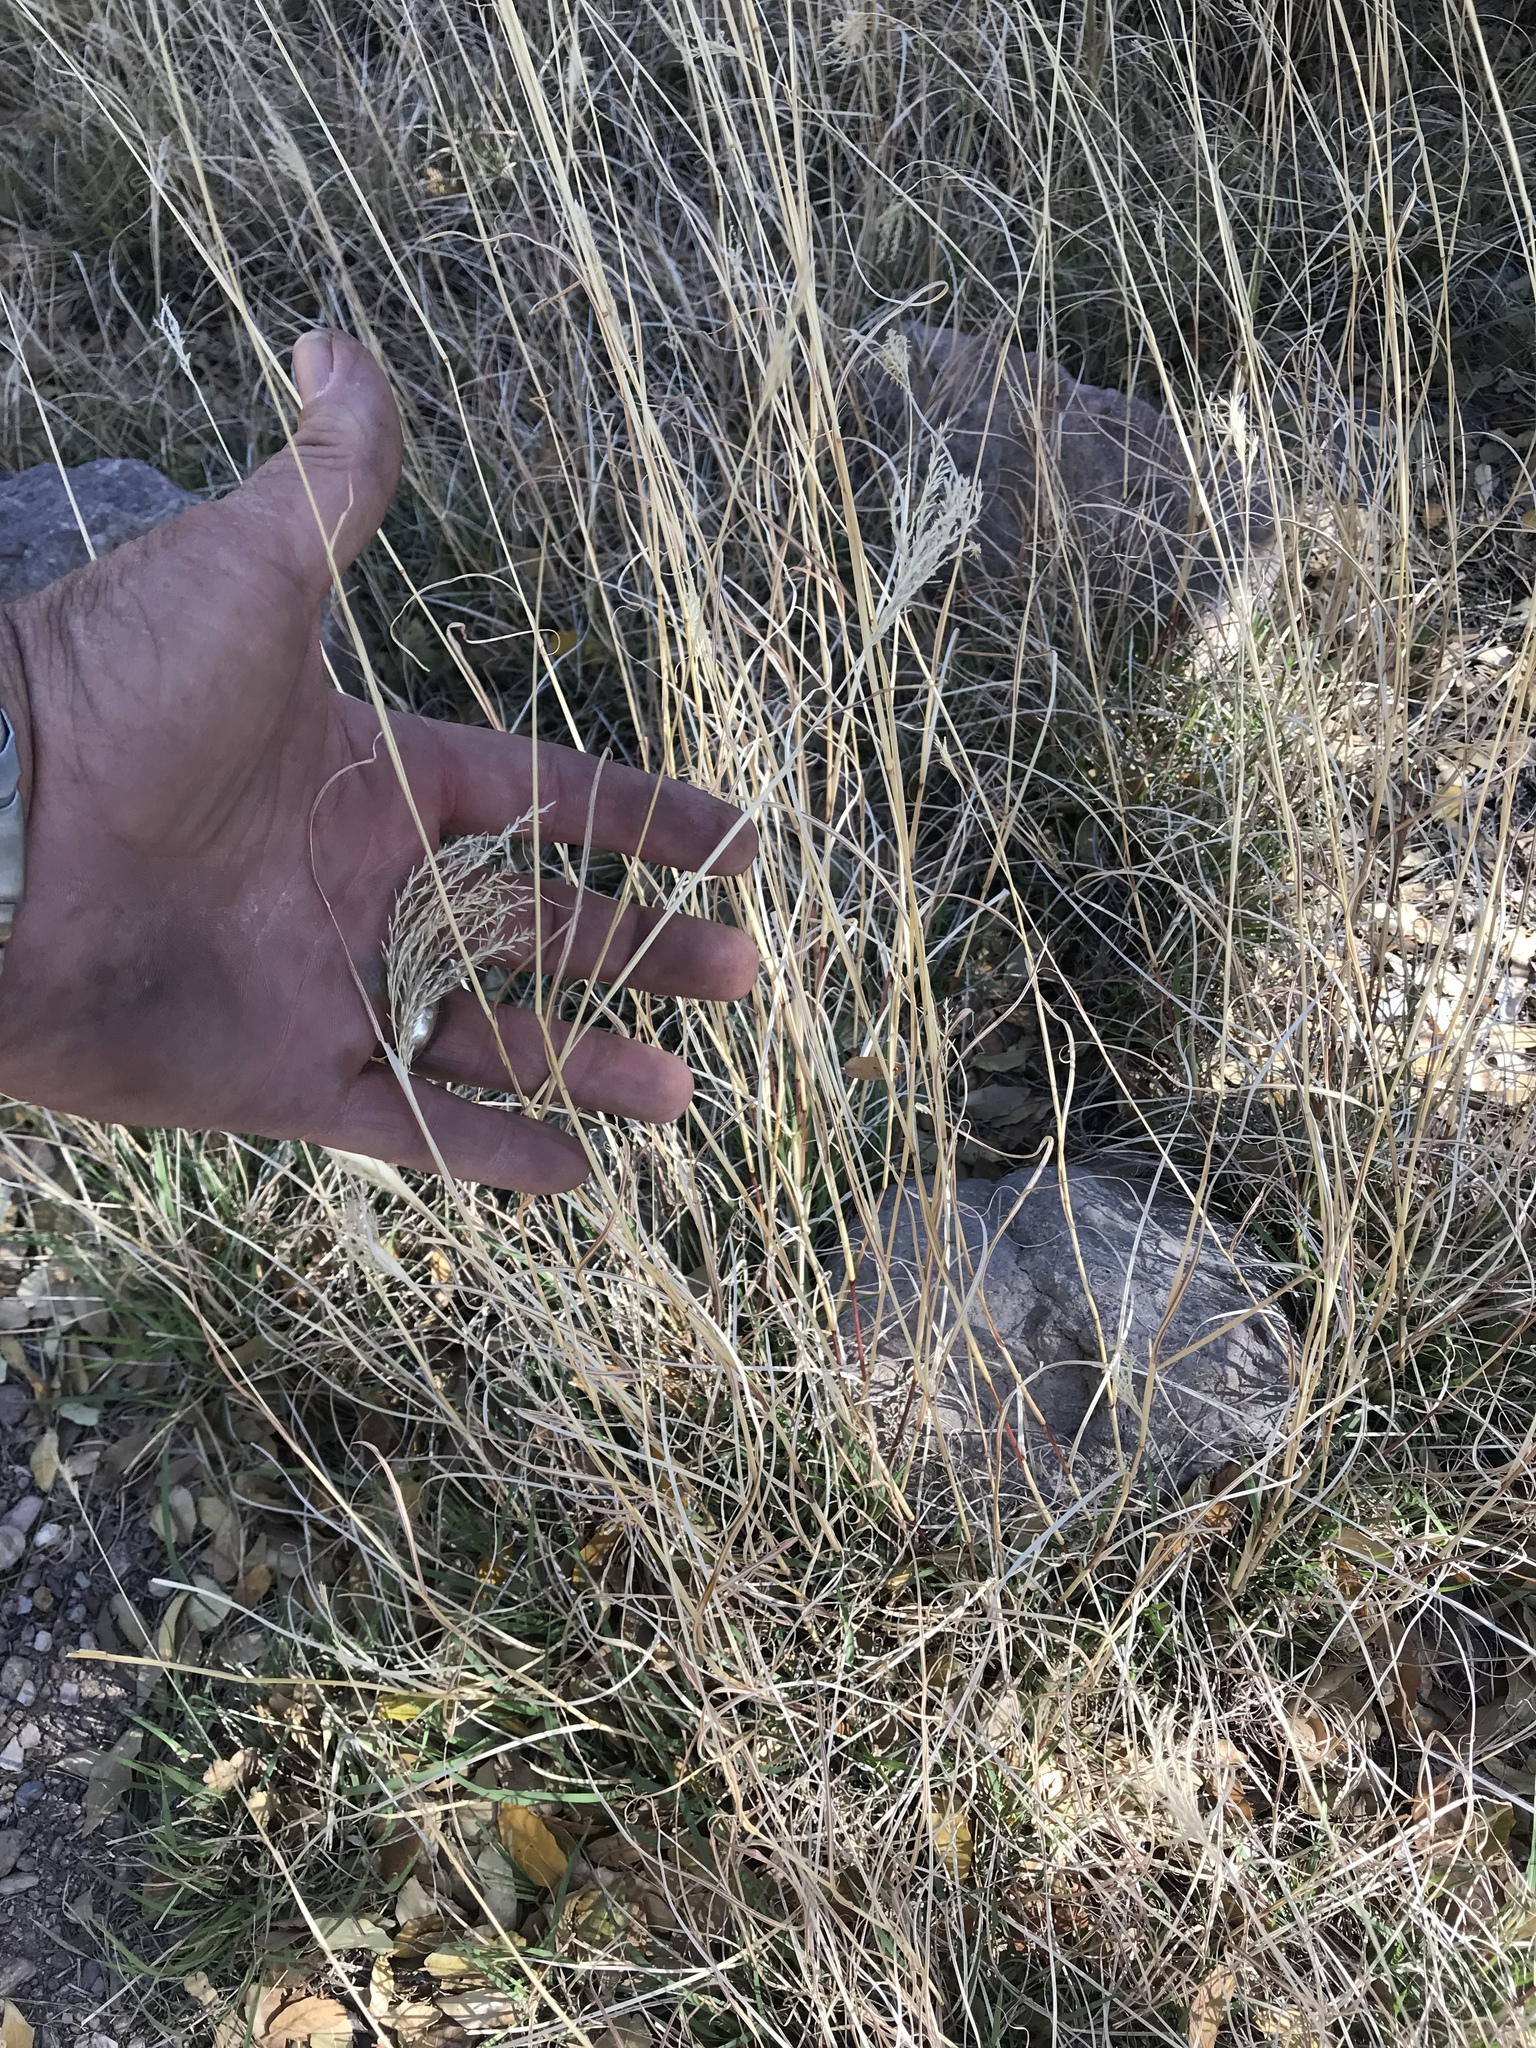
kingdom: Plantae
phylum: Tracheophyta
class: Liliopsida
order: Poales
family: Poaceae
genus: Bothriochloa
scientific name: Bothriochloa ischaemum
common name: Yellow bluestem
